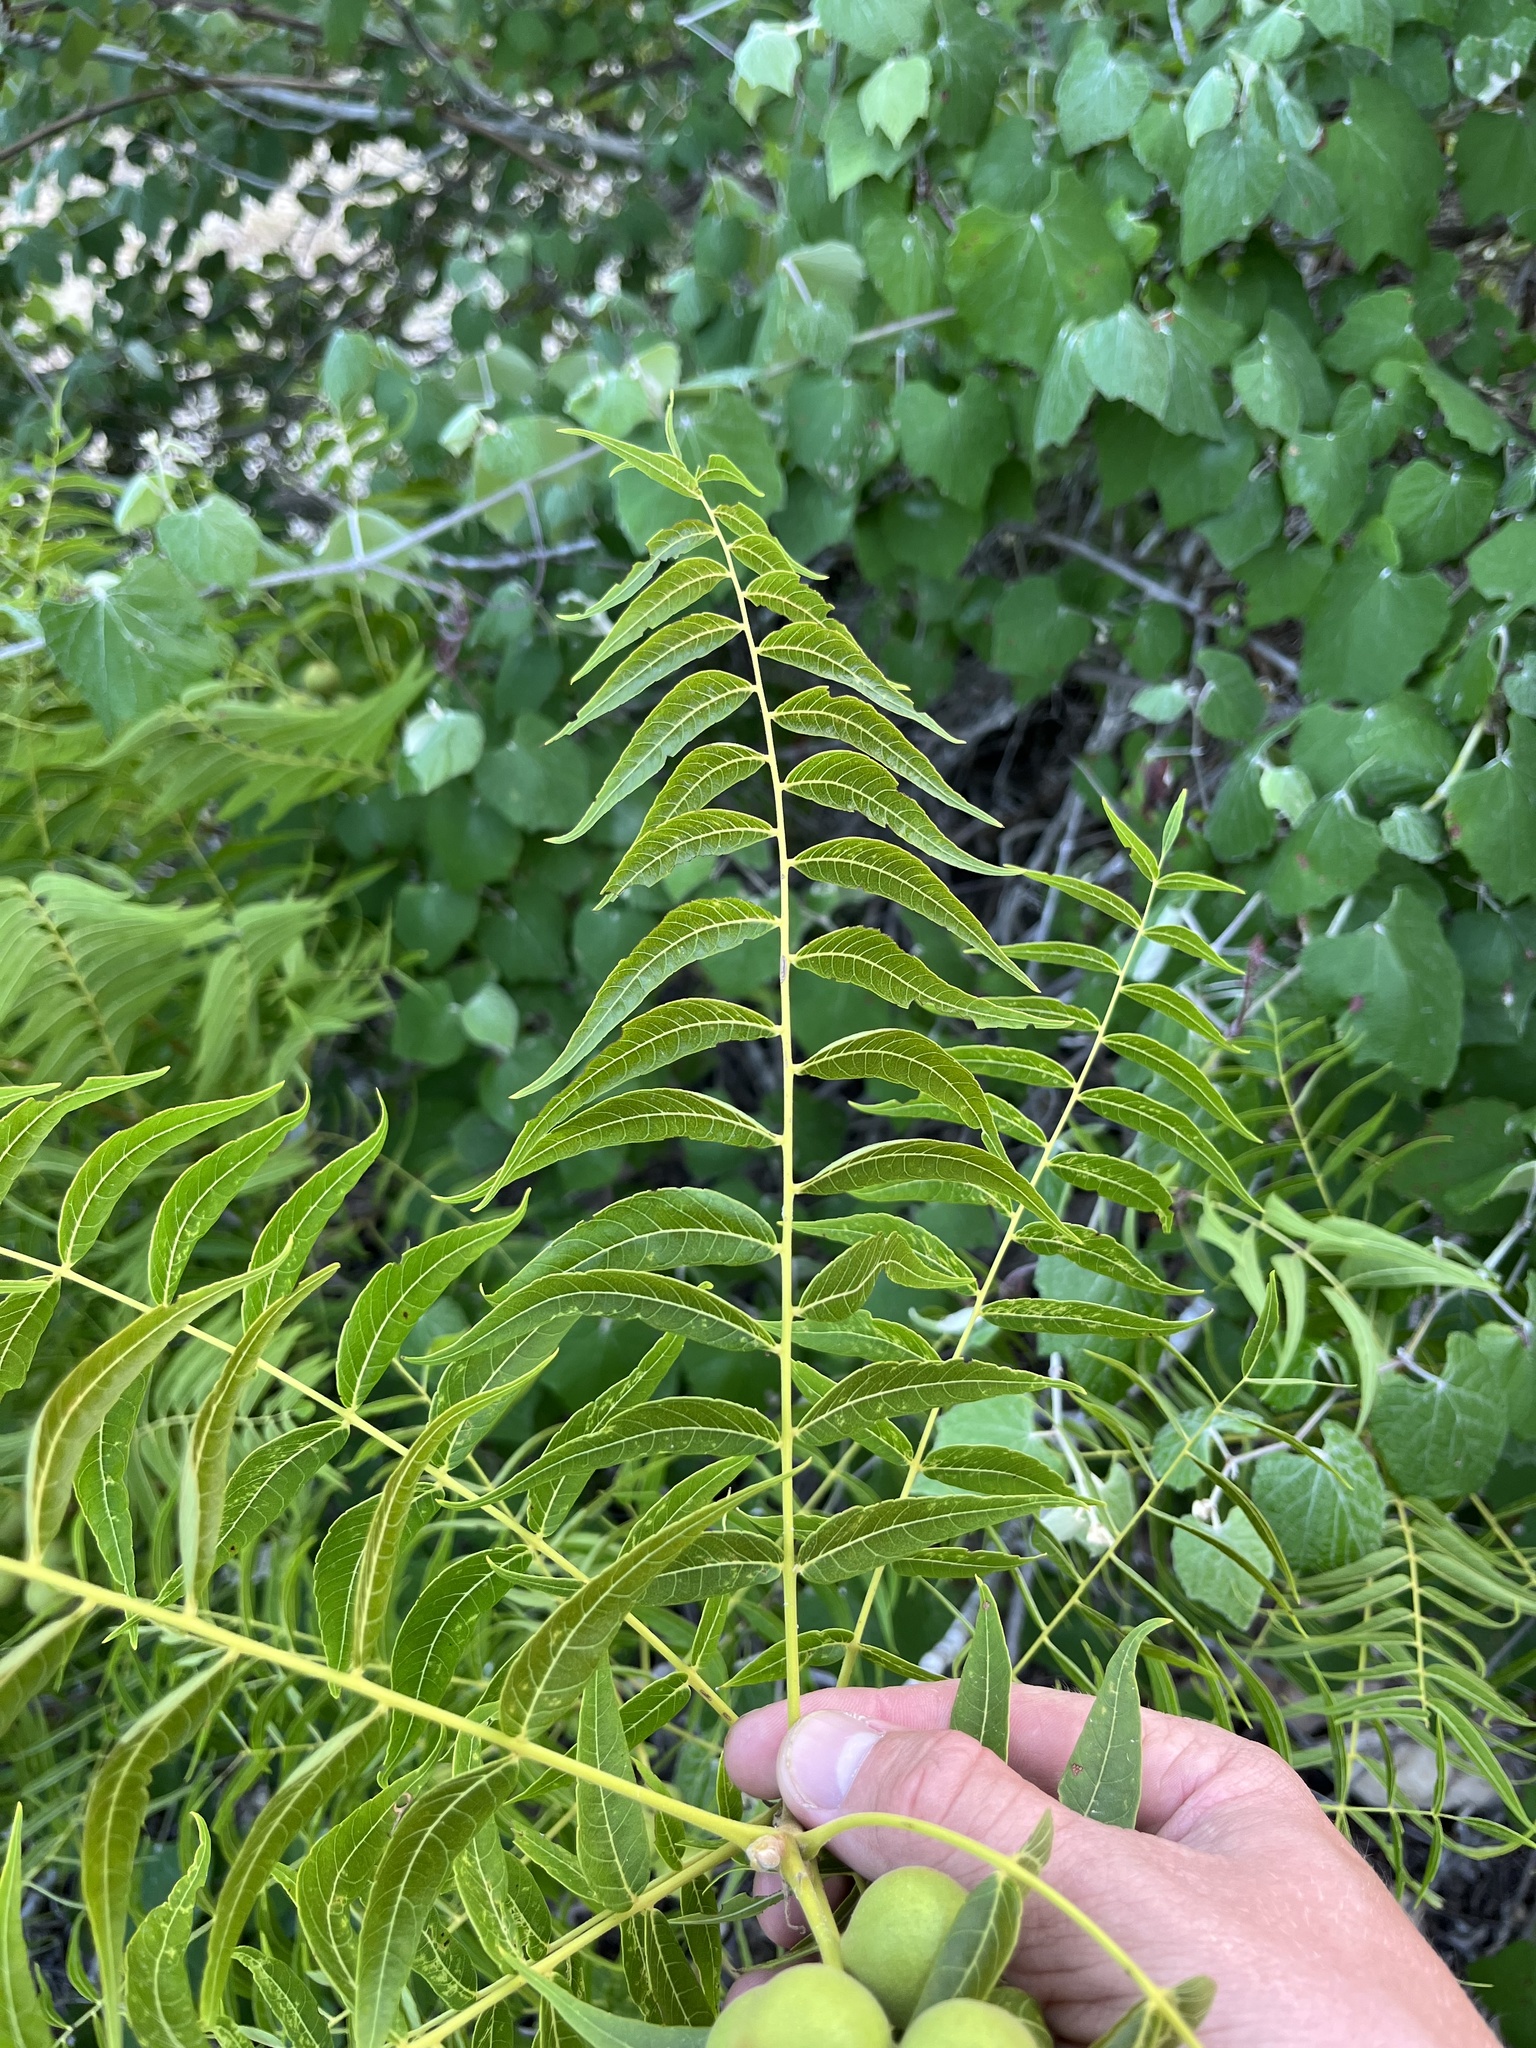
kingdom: Plantae
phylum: Tracheophyta
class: Magnoliopsida
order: Fagales
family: Juglandaceae
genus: Juglans
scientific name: Juglans microcarpa
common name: Texas walnut
